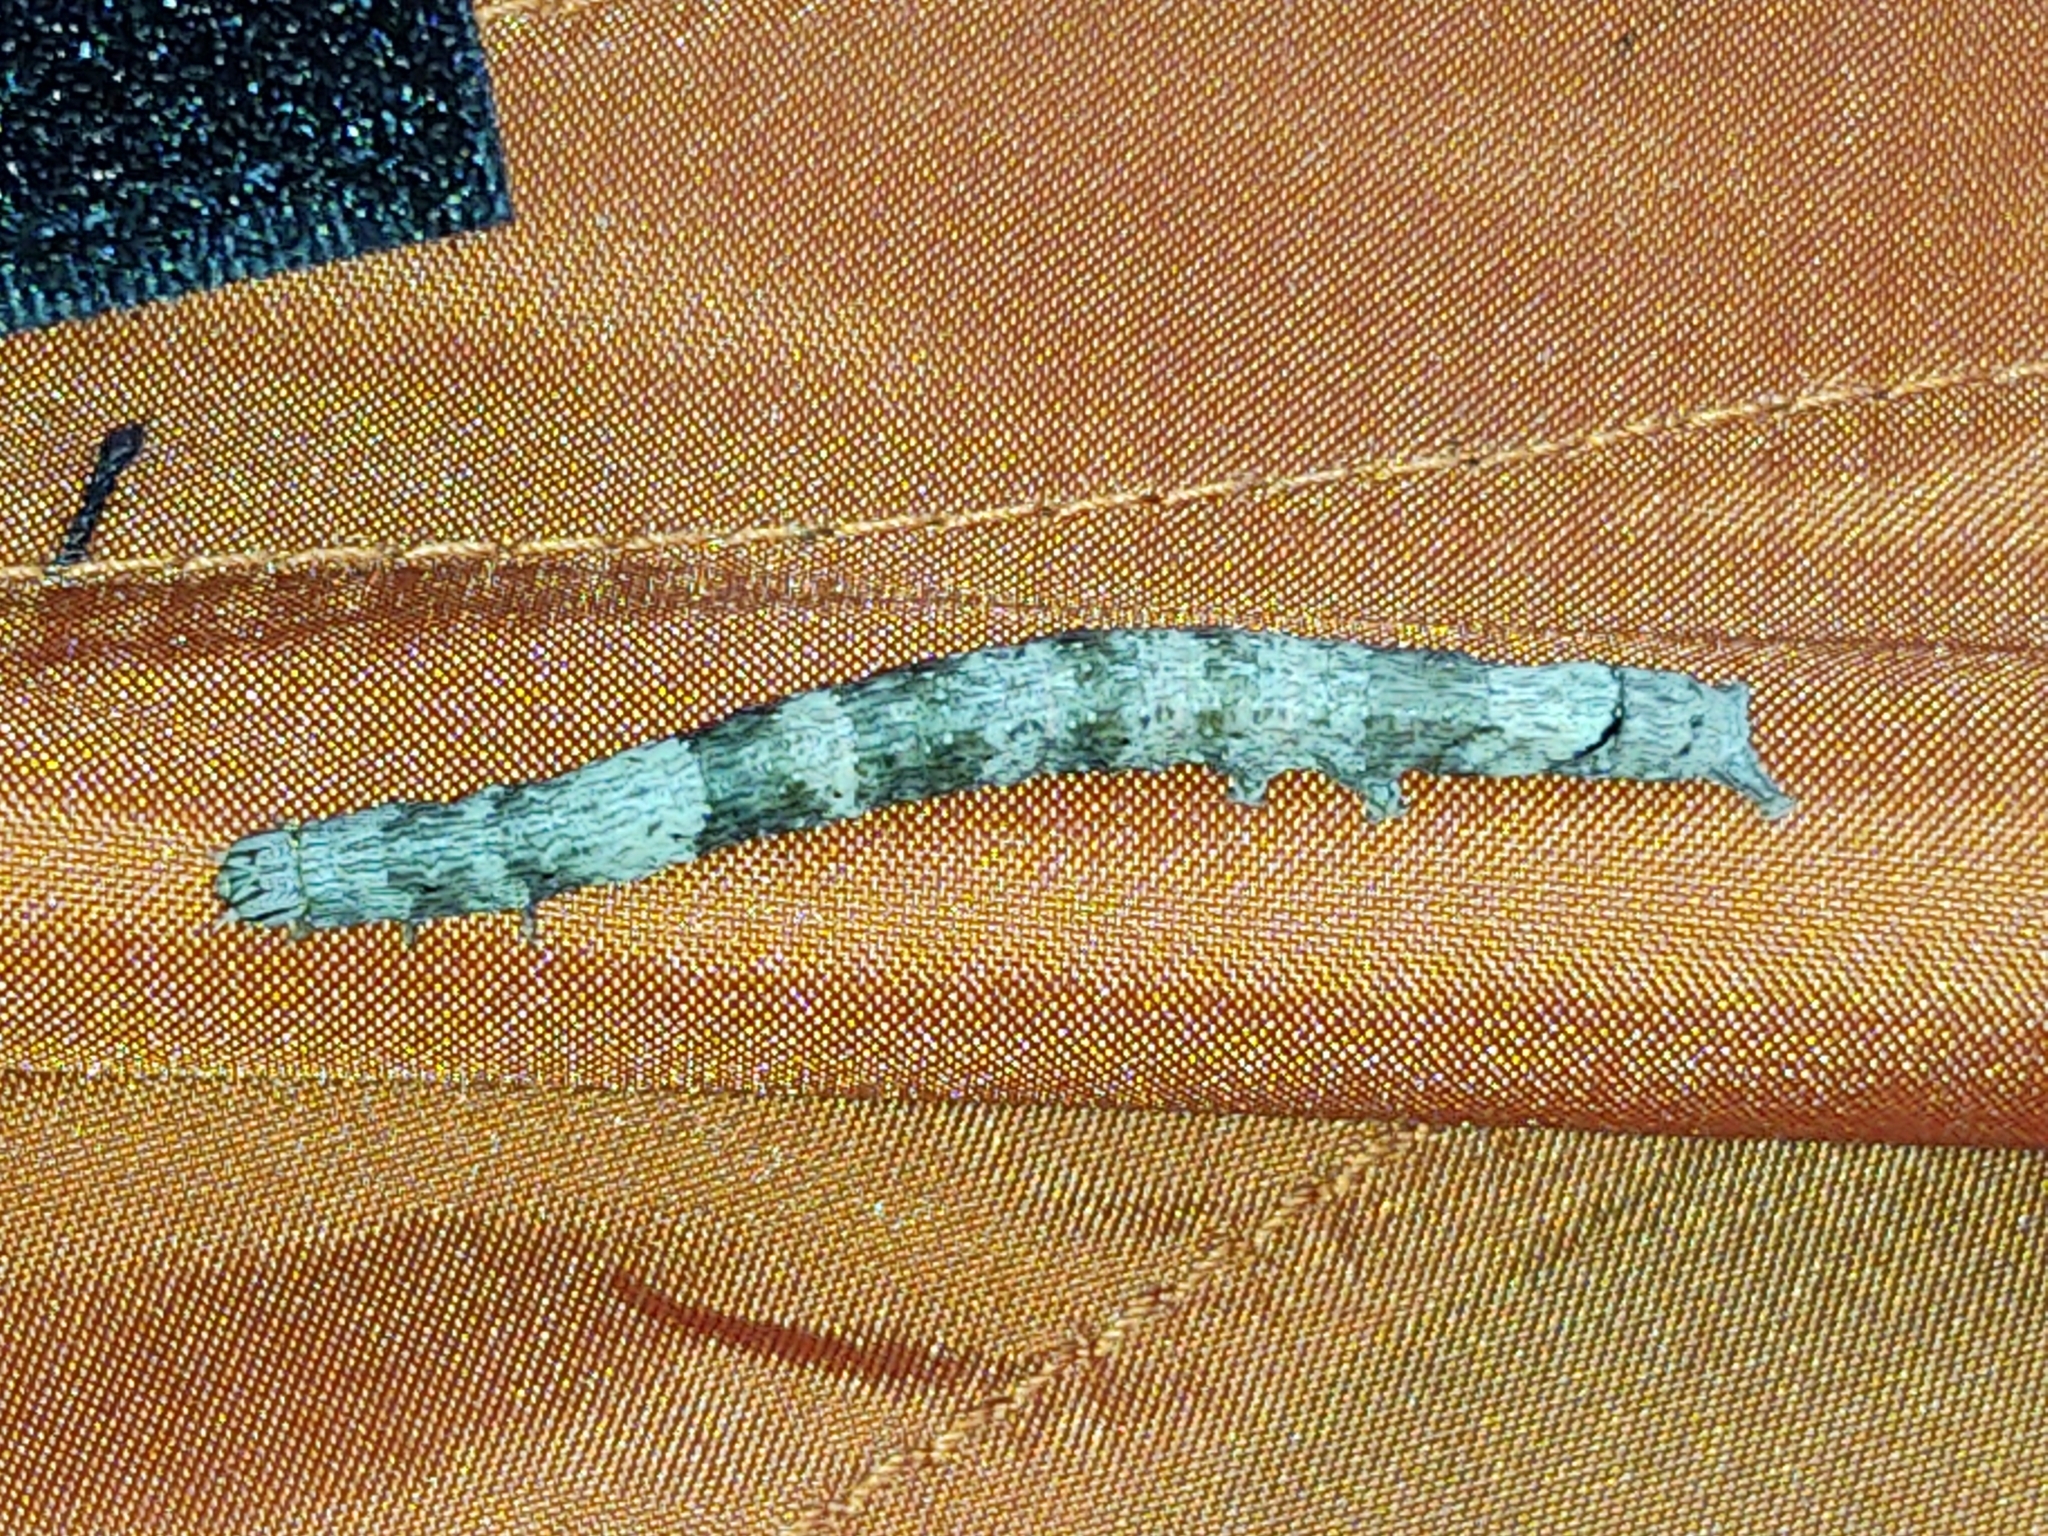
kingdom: Animalia
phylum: Arthropoda
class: Insecta
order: Lepidoptera
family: Erebidae
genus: Parallelia
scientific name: Parallelia bistriaris
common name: Maple looper moth
